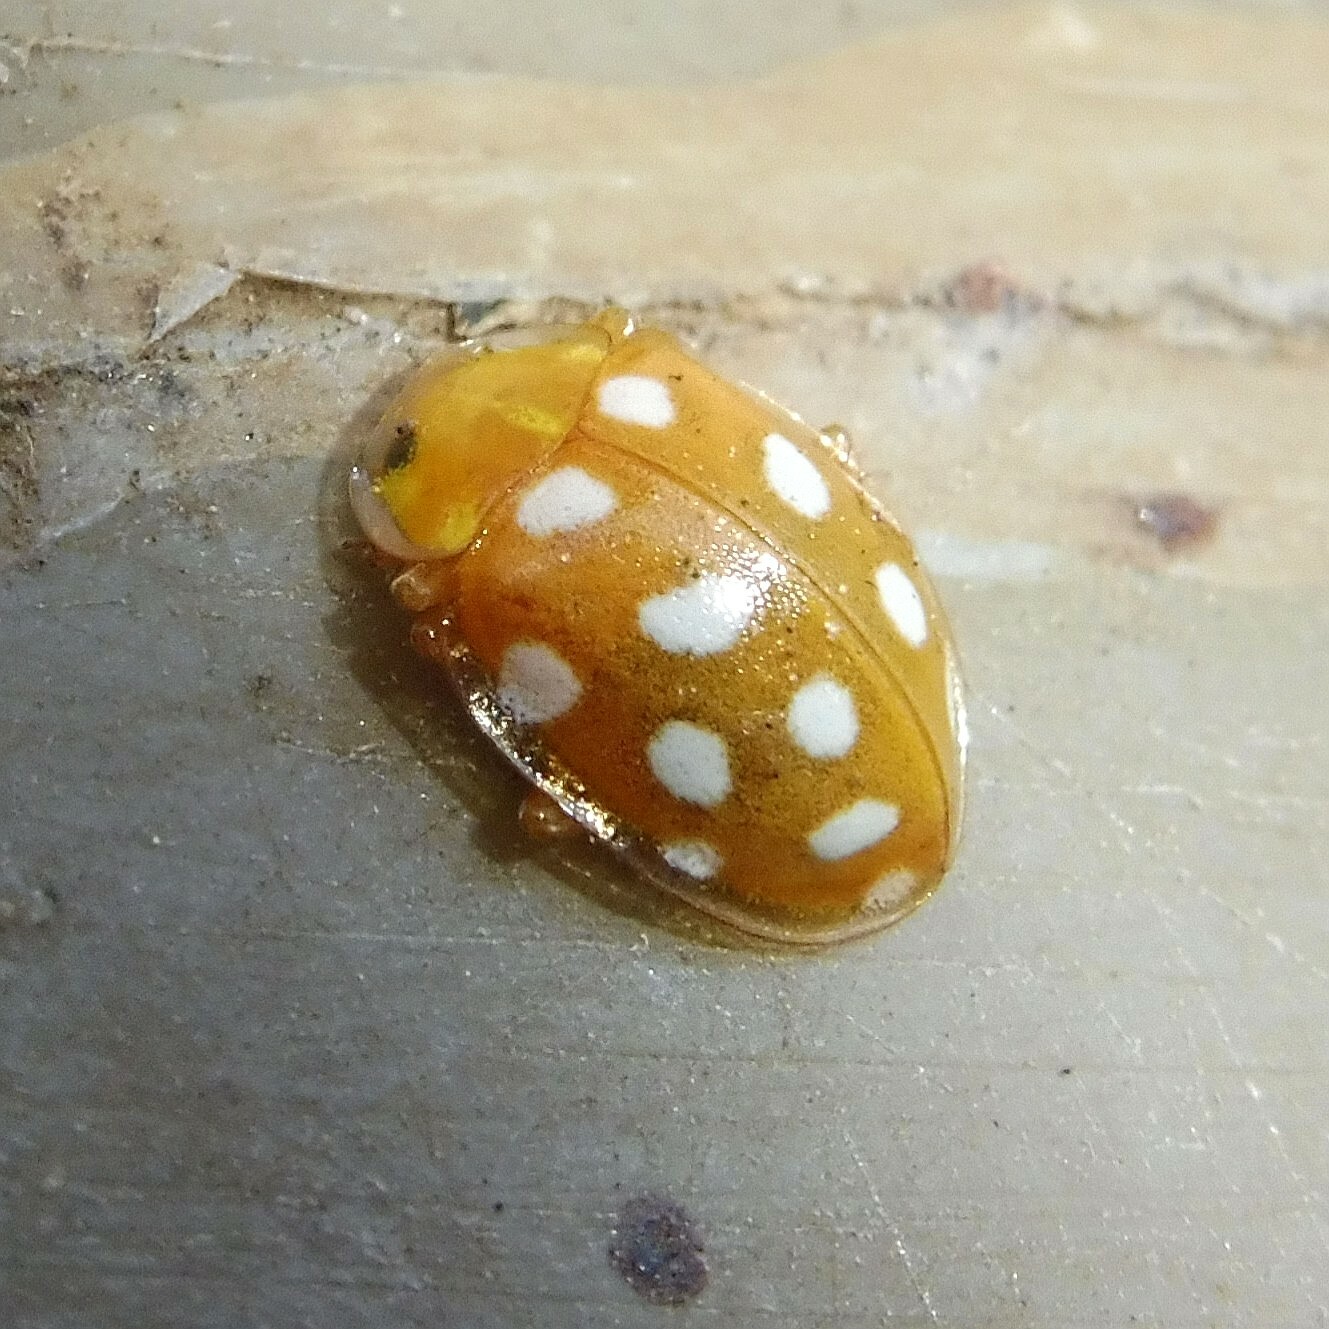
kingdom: Animalia
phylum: Arthropoda
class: Insecta
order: Coleoptera
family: Coccinellidae
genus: Halyzia
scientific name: Halyzia sedecimguttata
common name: Orange ladybird
